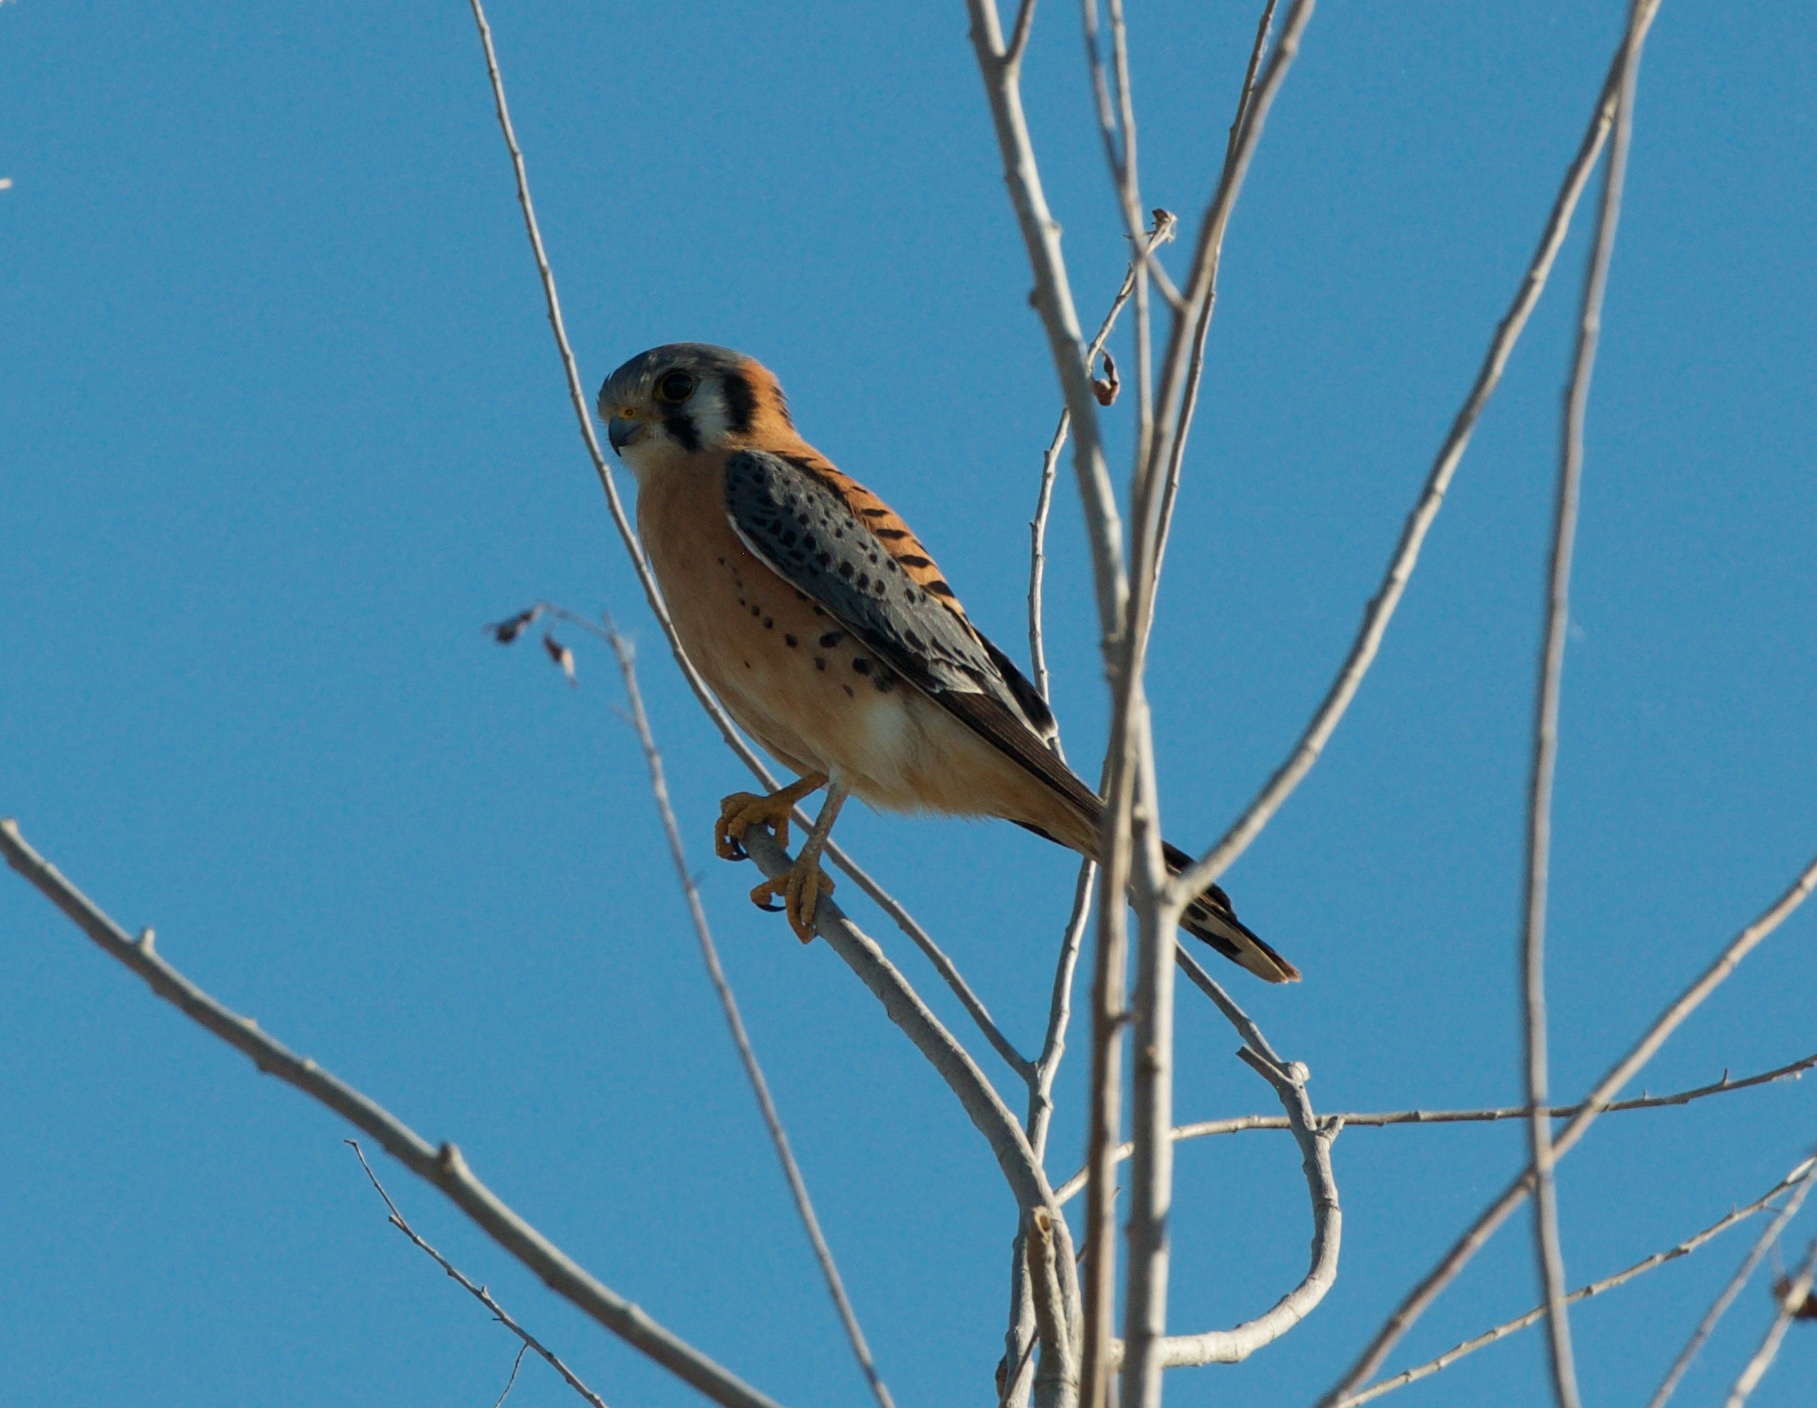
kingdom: Animalia
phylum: Chordata
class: Aves
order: Falconiformes
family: Falconidae
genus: Falco
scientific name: Falco sparverius
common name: American kestrel
